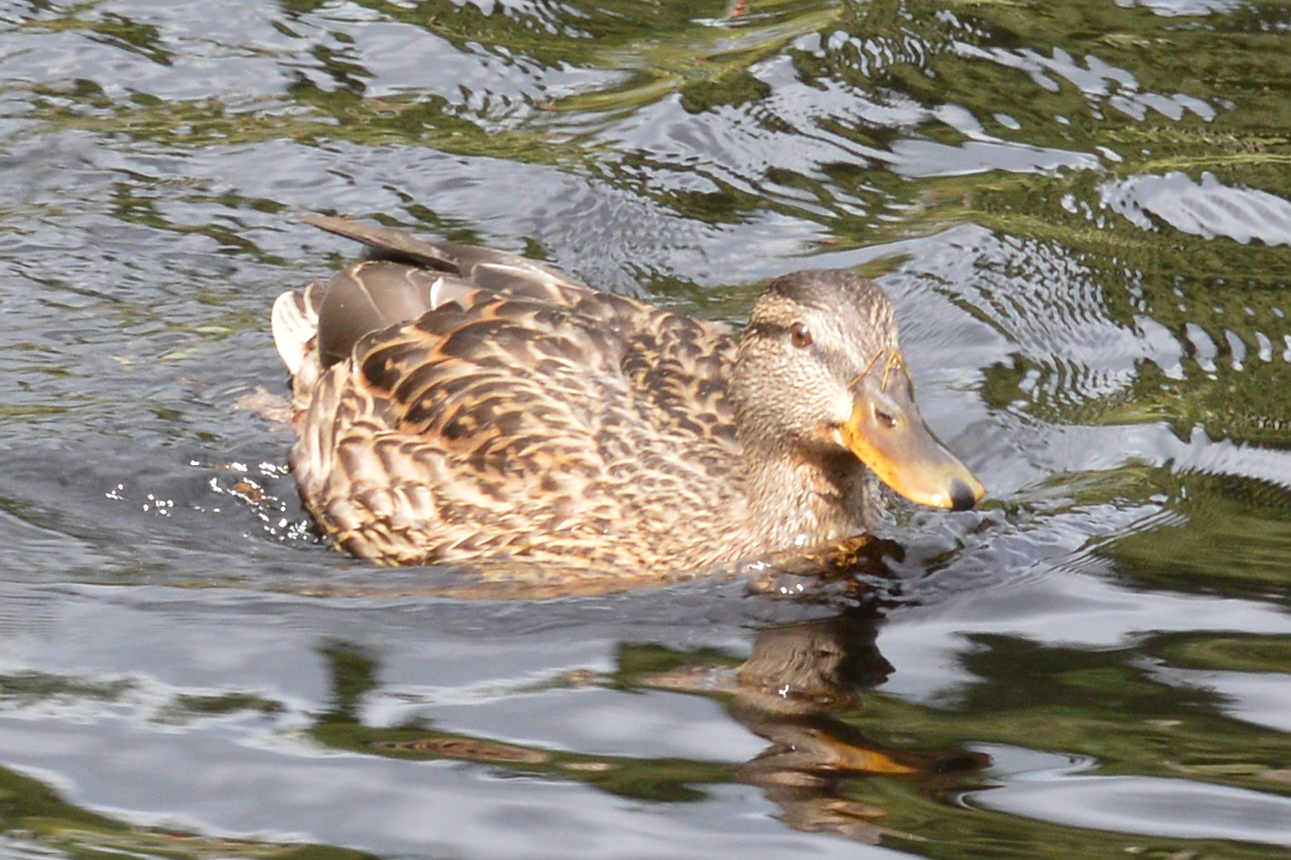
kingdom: Animalia
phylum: Chordata
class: Aves
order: Anseriformes
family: Anatidae
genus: Anas
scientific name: Anas platyrhynchos
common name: Mallard
